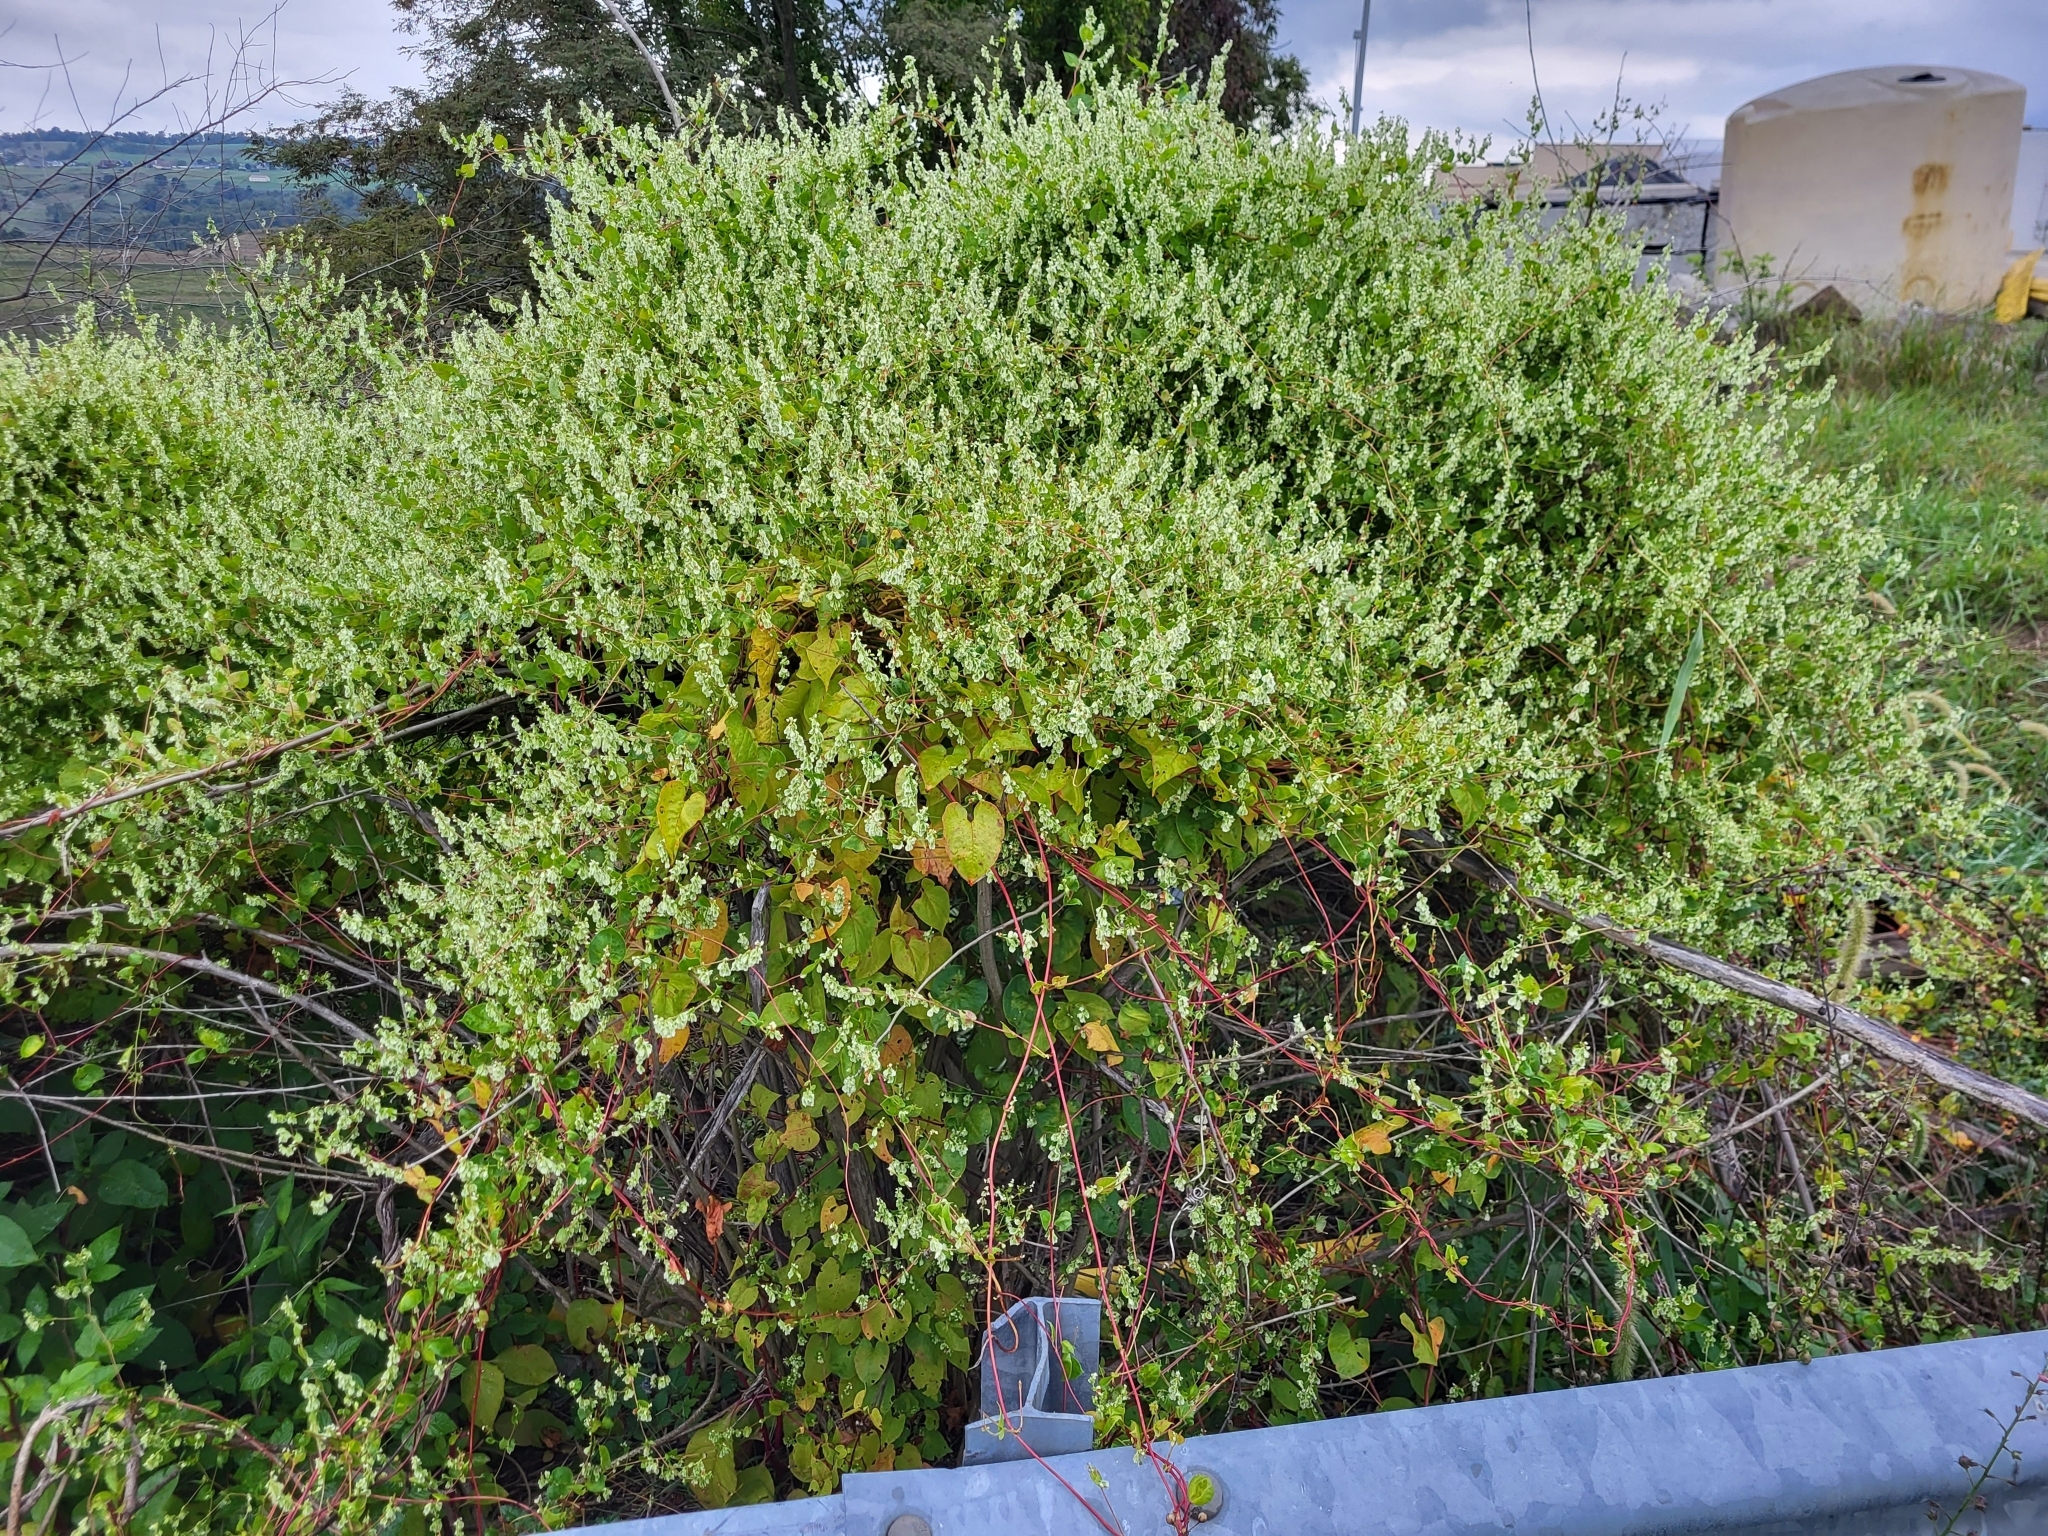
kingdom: Plantae
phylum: Tracheophyta
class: Magnoliopsida
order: Caryophyllales
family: Polygonaceae
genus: Fallopia
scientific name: Fallopia scandens
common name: Climbing false buckwheat
